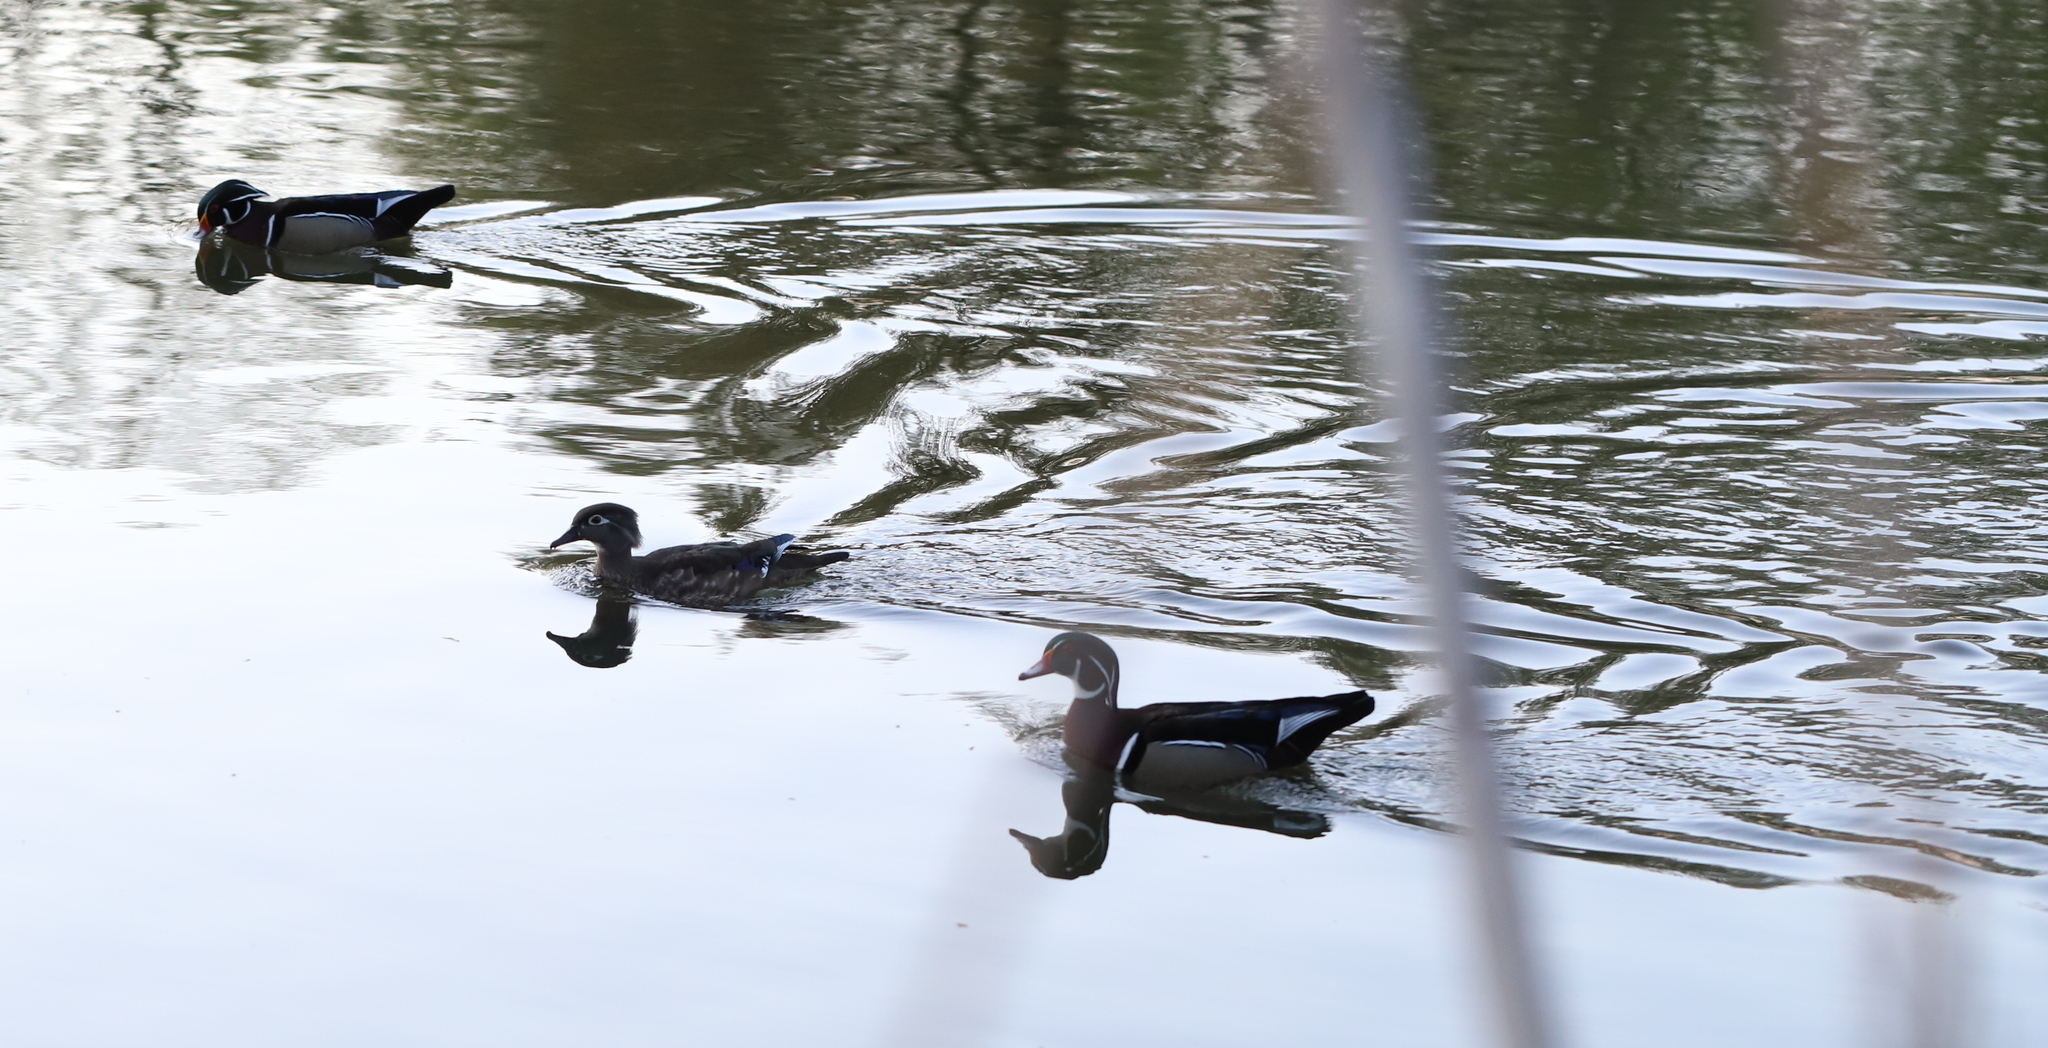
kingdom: Animalia
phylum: Chordata
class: Aves
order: Anseriformes
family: Anatidae
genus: Aix
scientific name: Aix sponsa
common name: Wood duck
